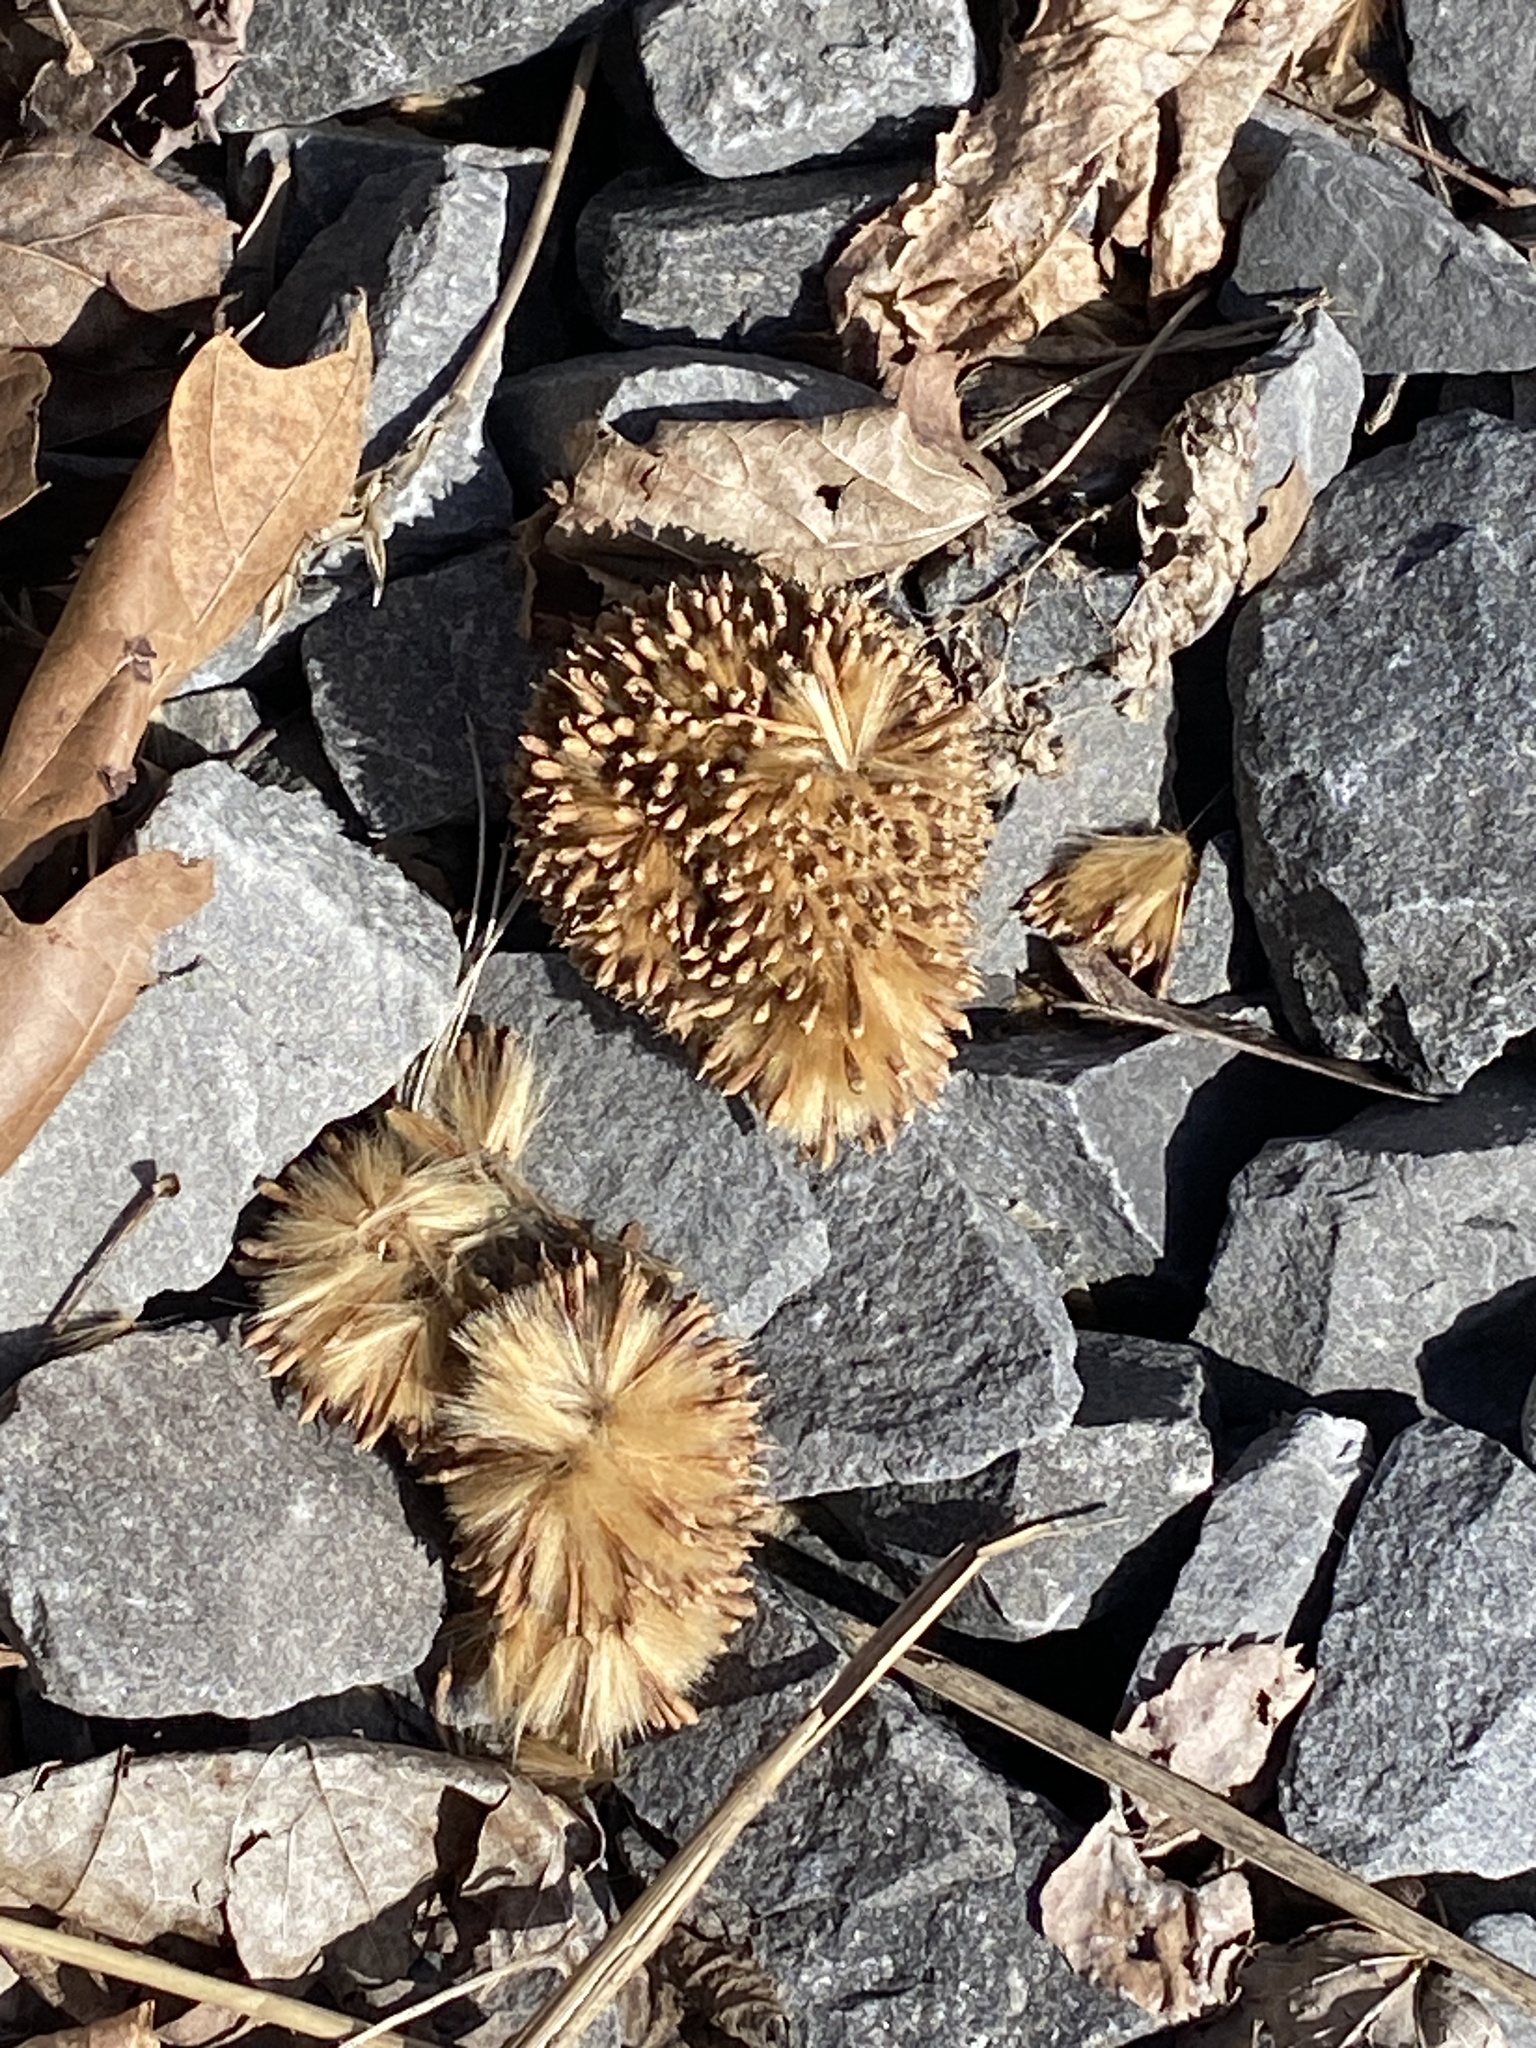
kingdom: Plantae
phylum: Tracheophyta
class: Magnoliopsida
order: Proteales
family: Platanaceae
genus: Platanus
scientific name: Platanus occidentalis
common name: American sycamore
